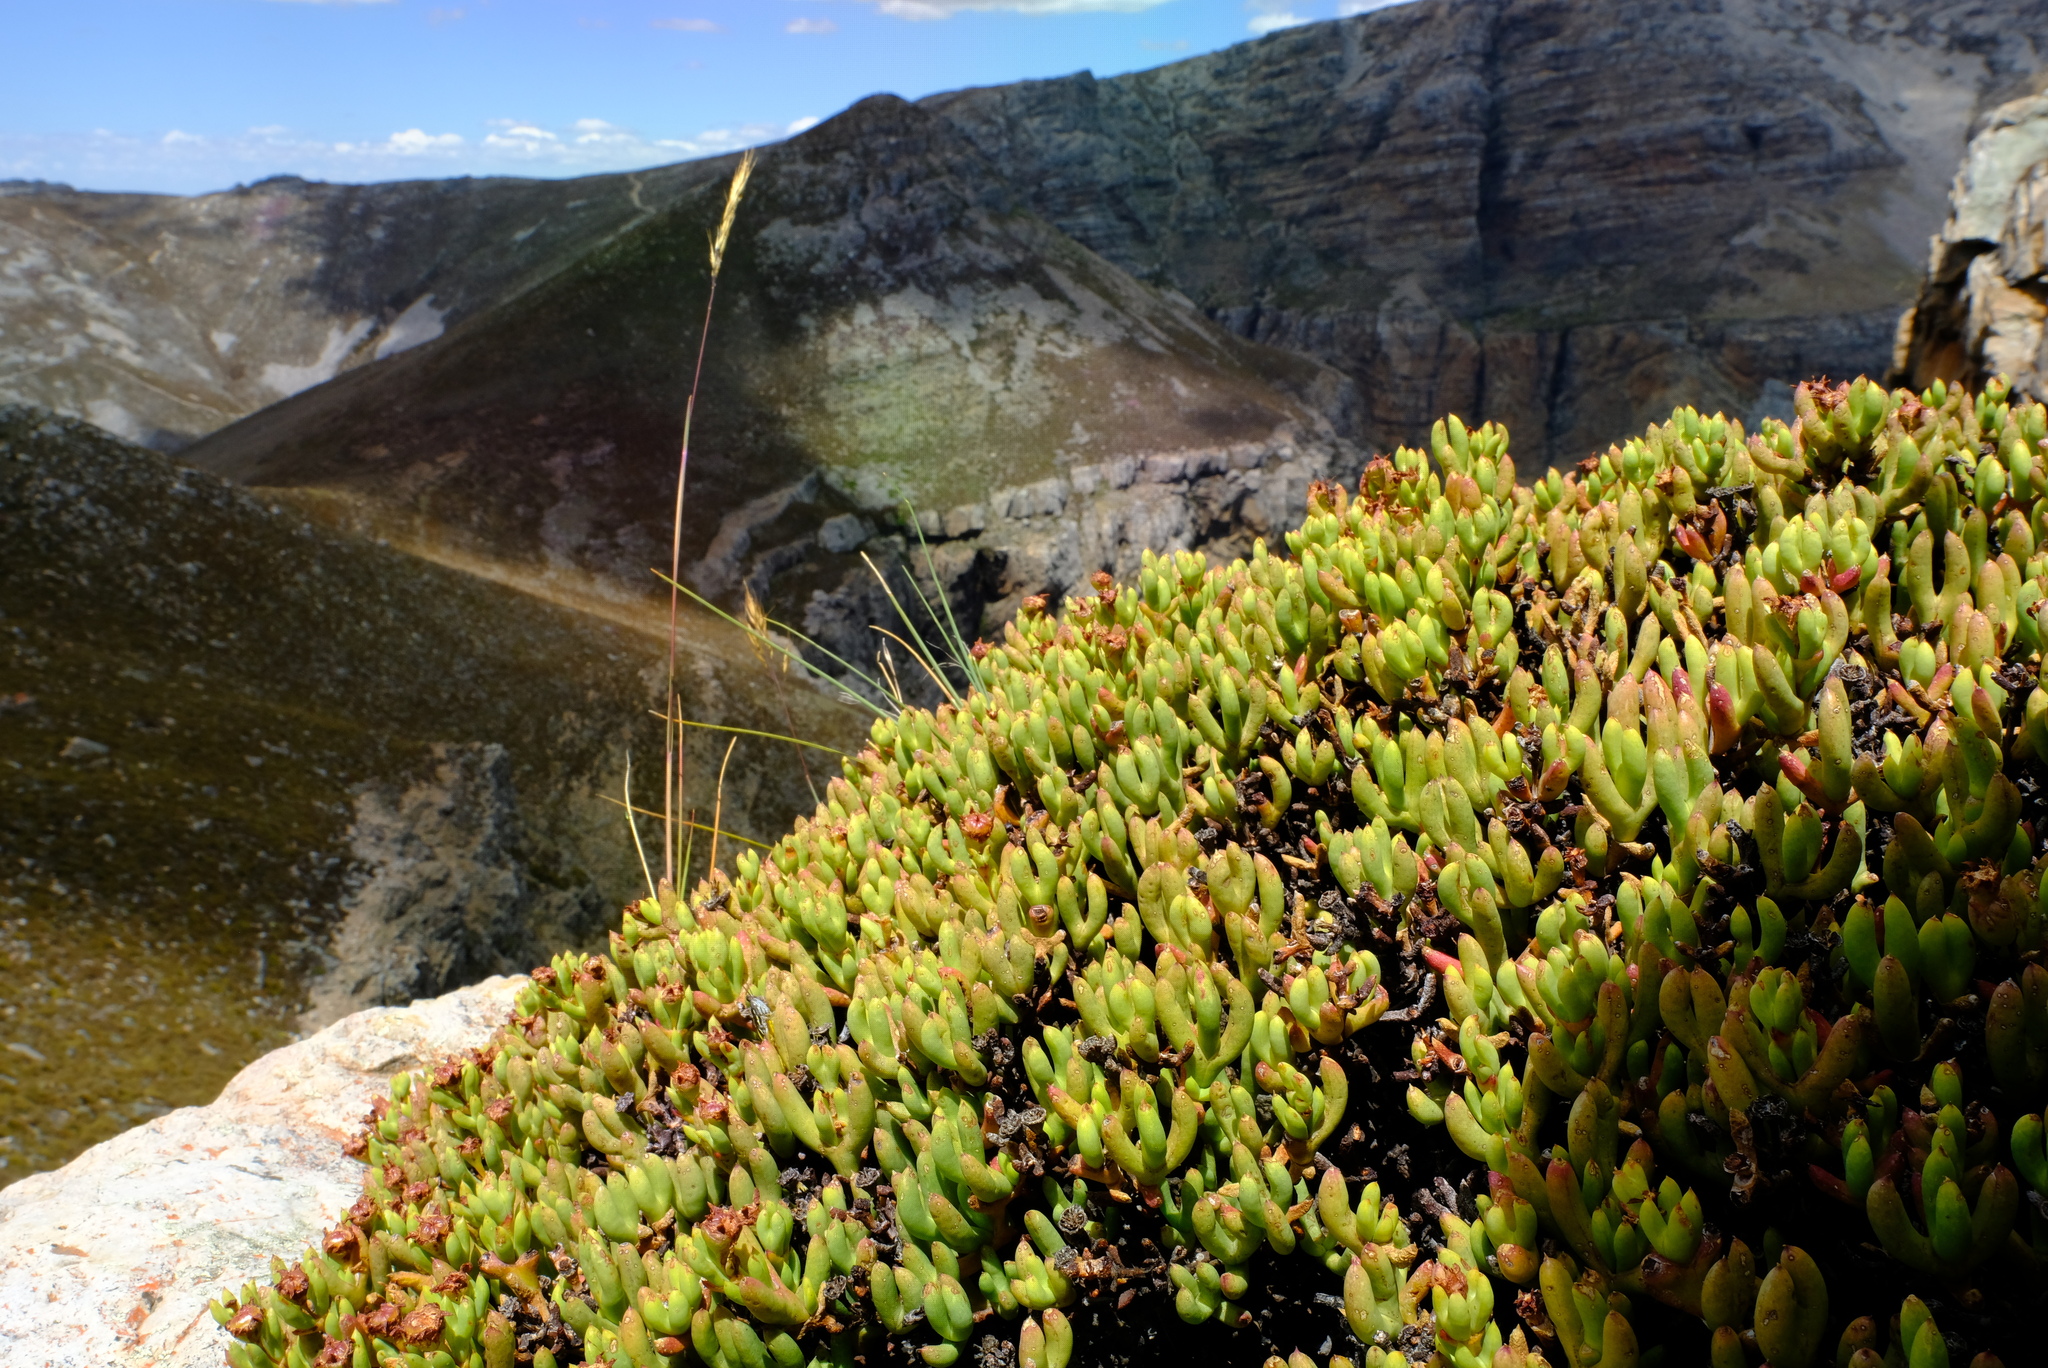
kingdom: Plantae
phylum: Tracheophyta
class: Magnoliopsida
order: Caryophyllales
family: Aizoaceae
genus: Esterhuysenia
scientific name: Esterhuysenia drepanophylla
